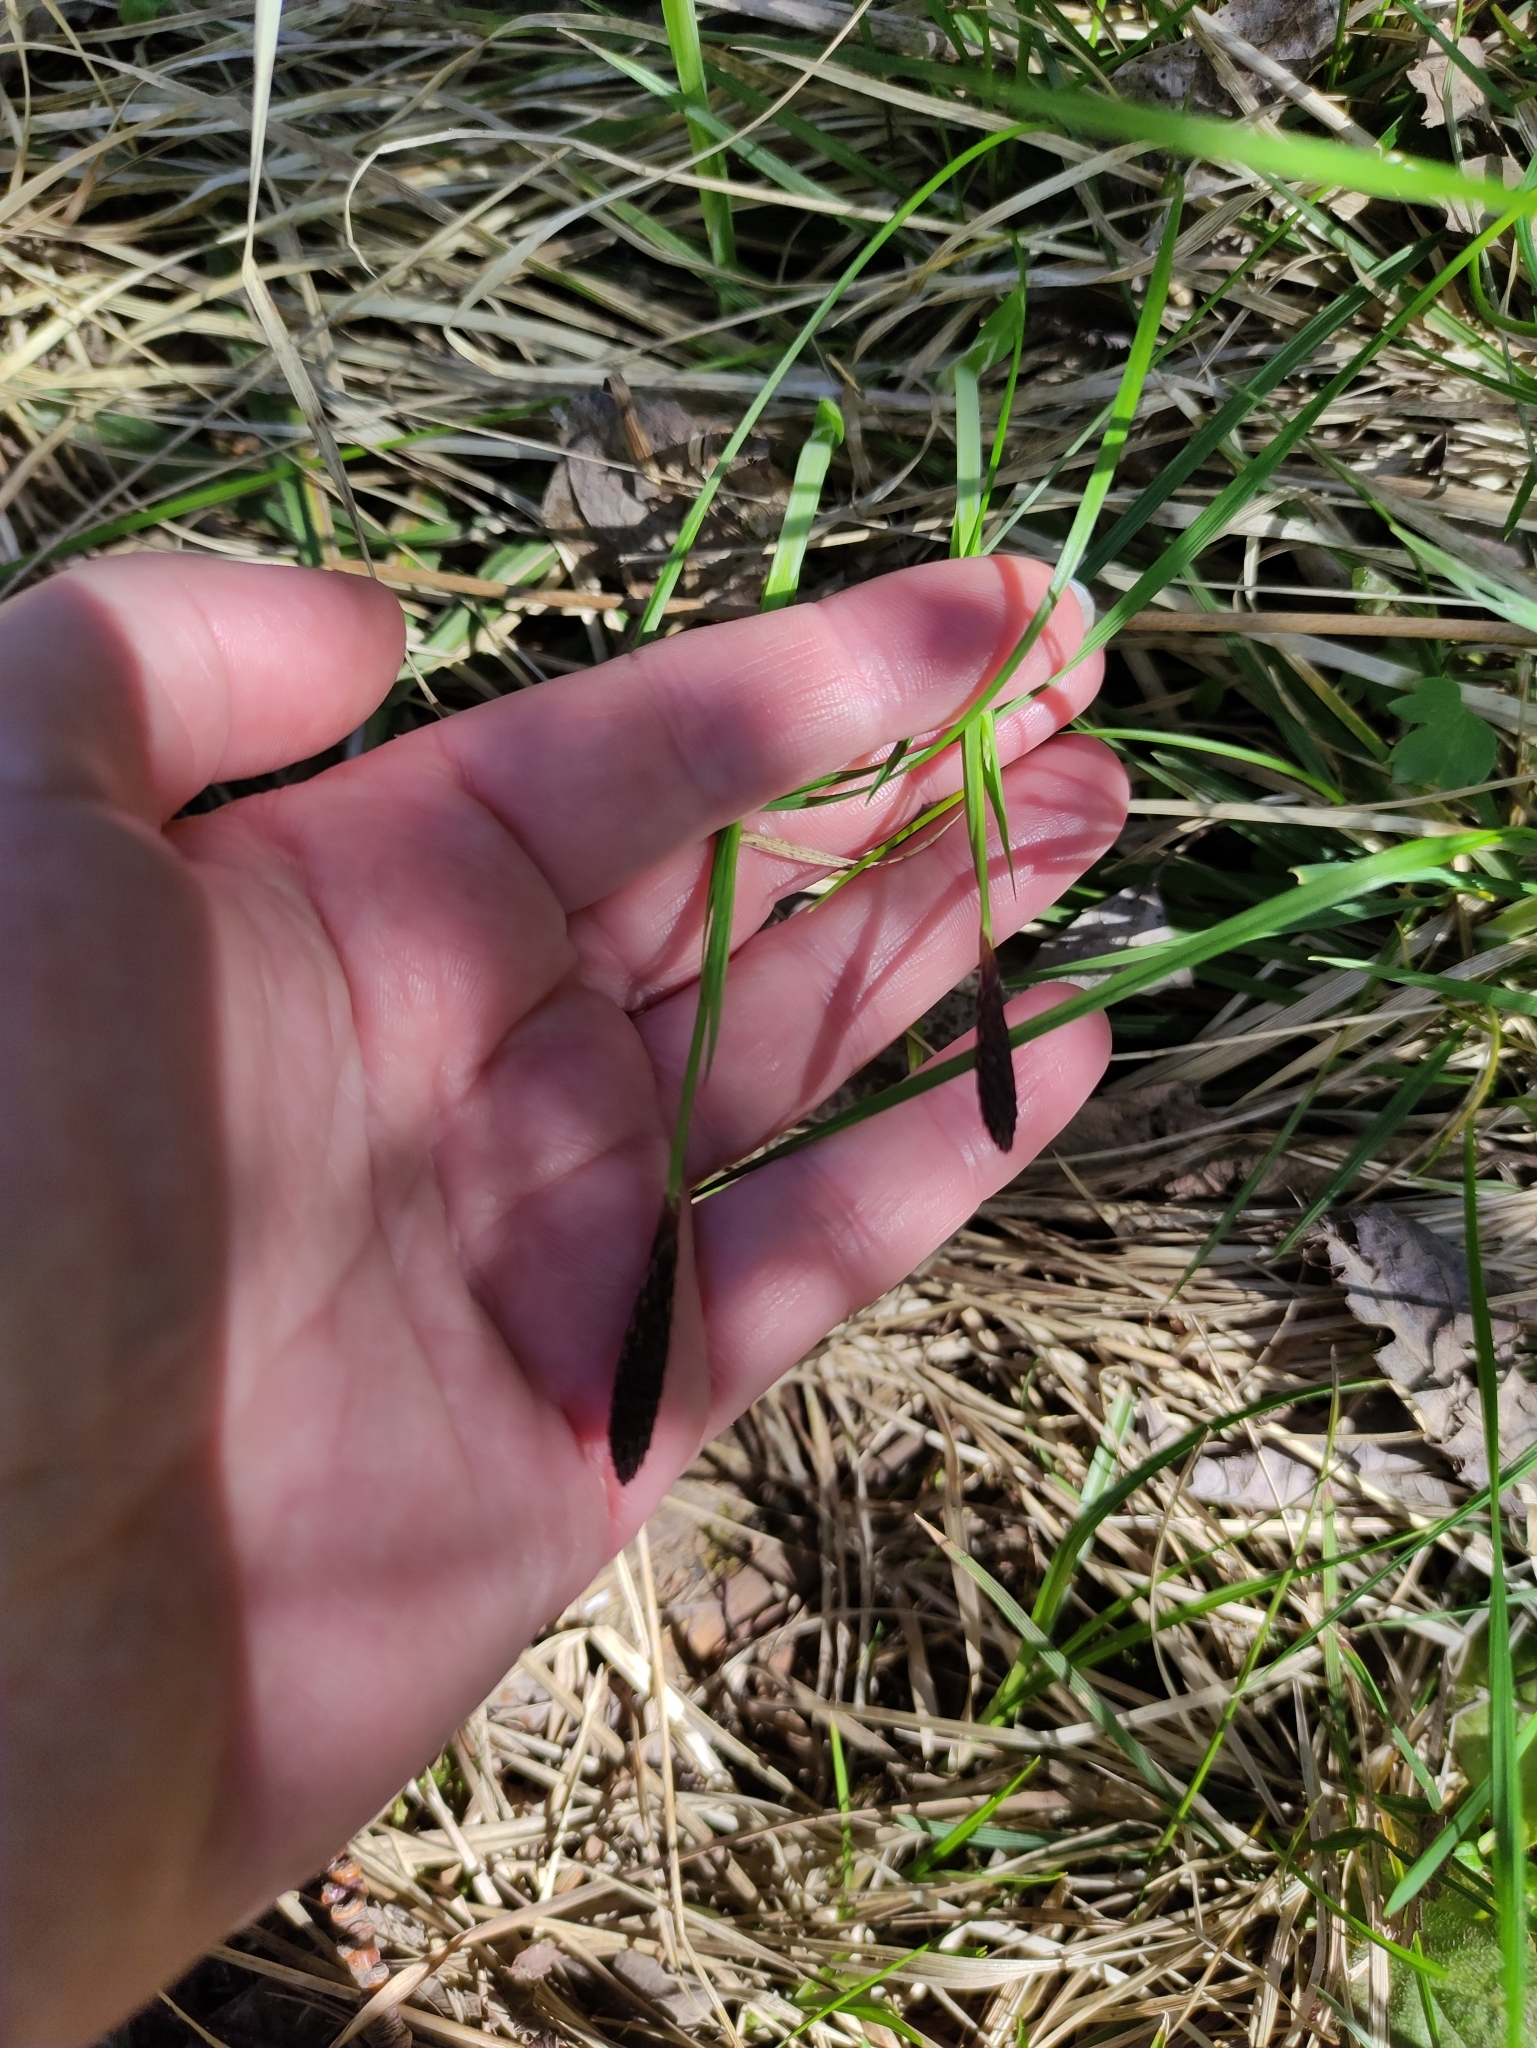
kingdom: Plantae
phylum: Tracheophyta
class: Liliopsida
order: Poales
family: Cyperaceae
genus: Carex
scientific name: Carex pilosa
